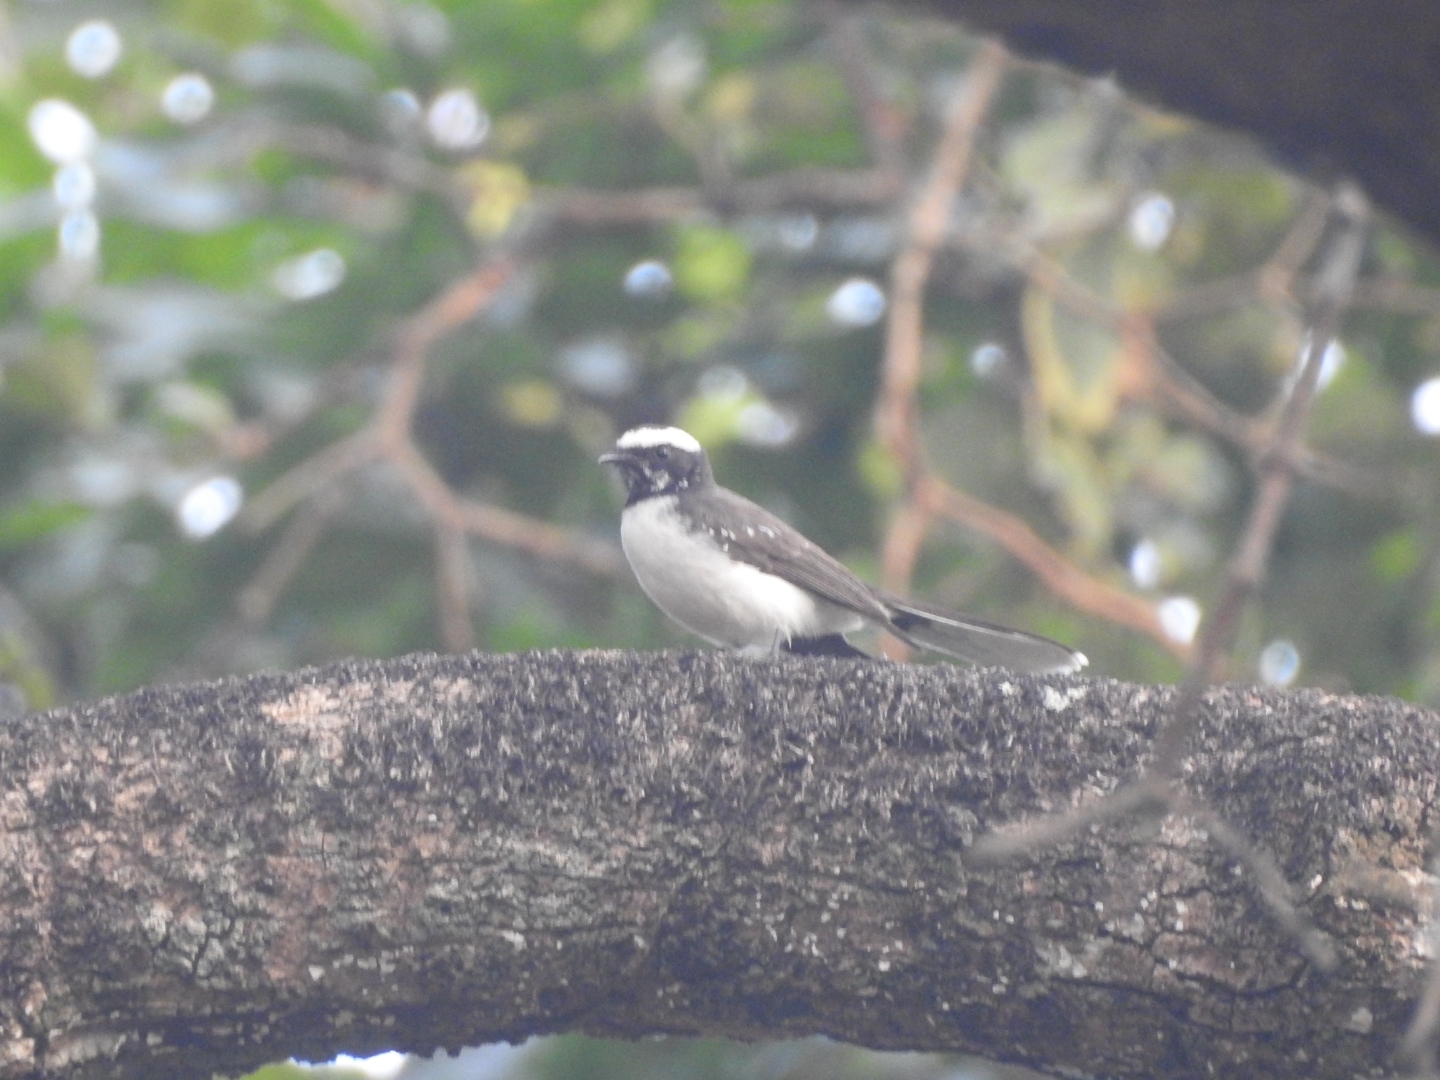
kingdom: Animalia
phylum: Chordata
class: Aves
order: Passeriformes
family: Rhipiduridae
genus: Rhipidura
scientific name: Rhipidura aureola
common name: White-browed fantail
